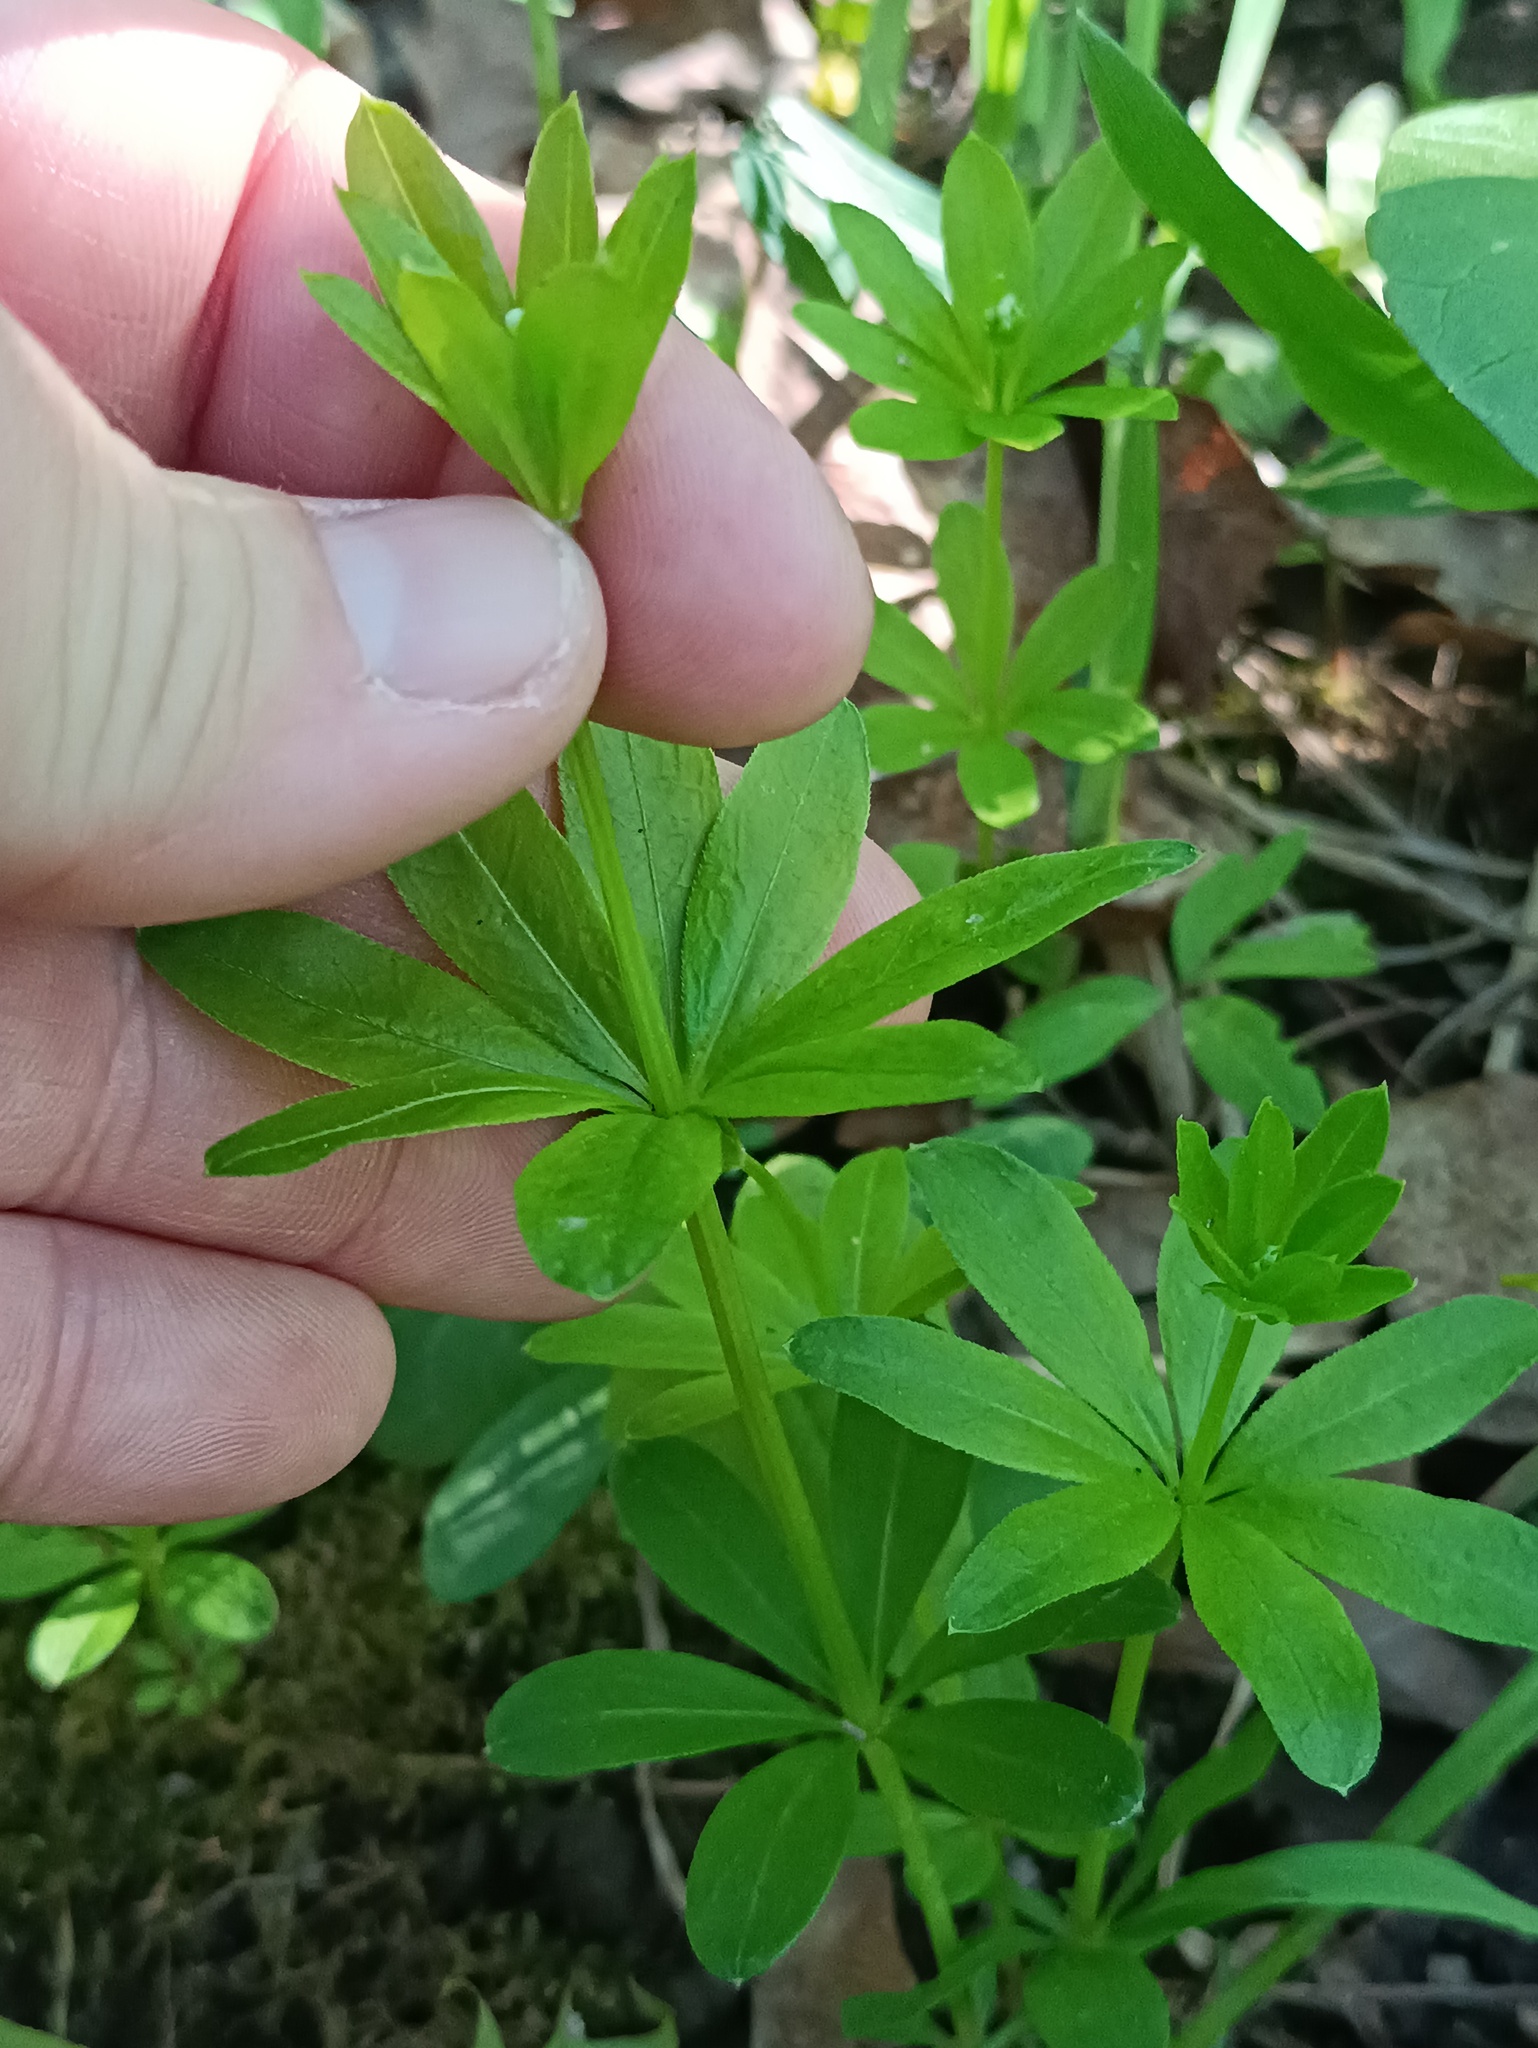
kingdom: Plantae
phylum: Tracheophyta
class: Magnoliopsida
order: Gentianales
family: Rubiaceae
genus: Galium
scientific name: Galium odoratum
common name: Sweet woodruff
